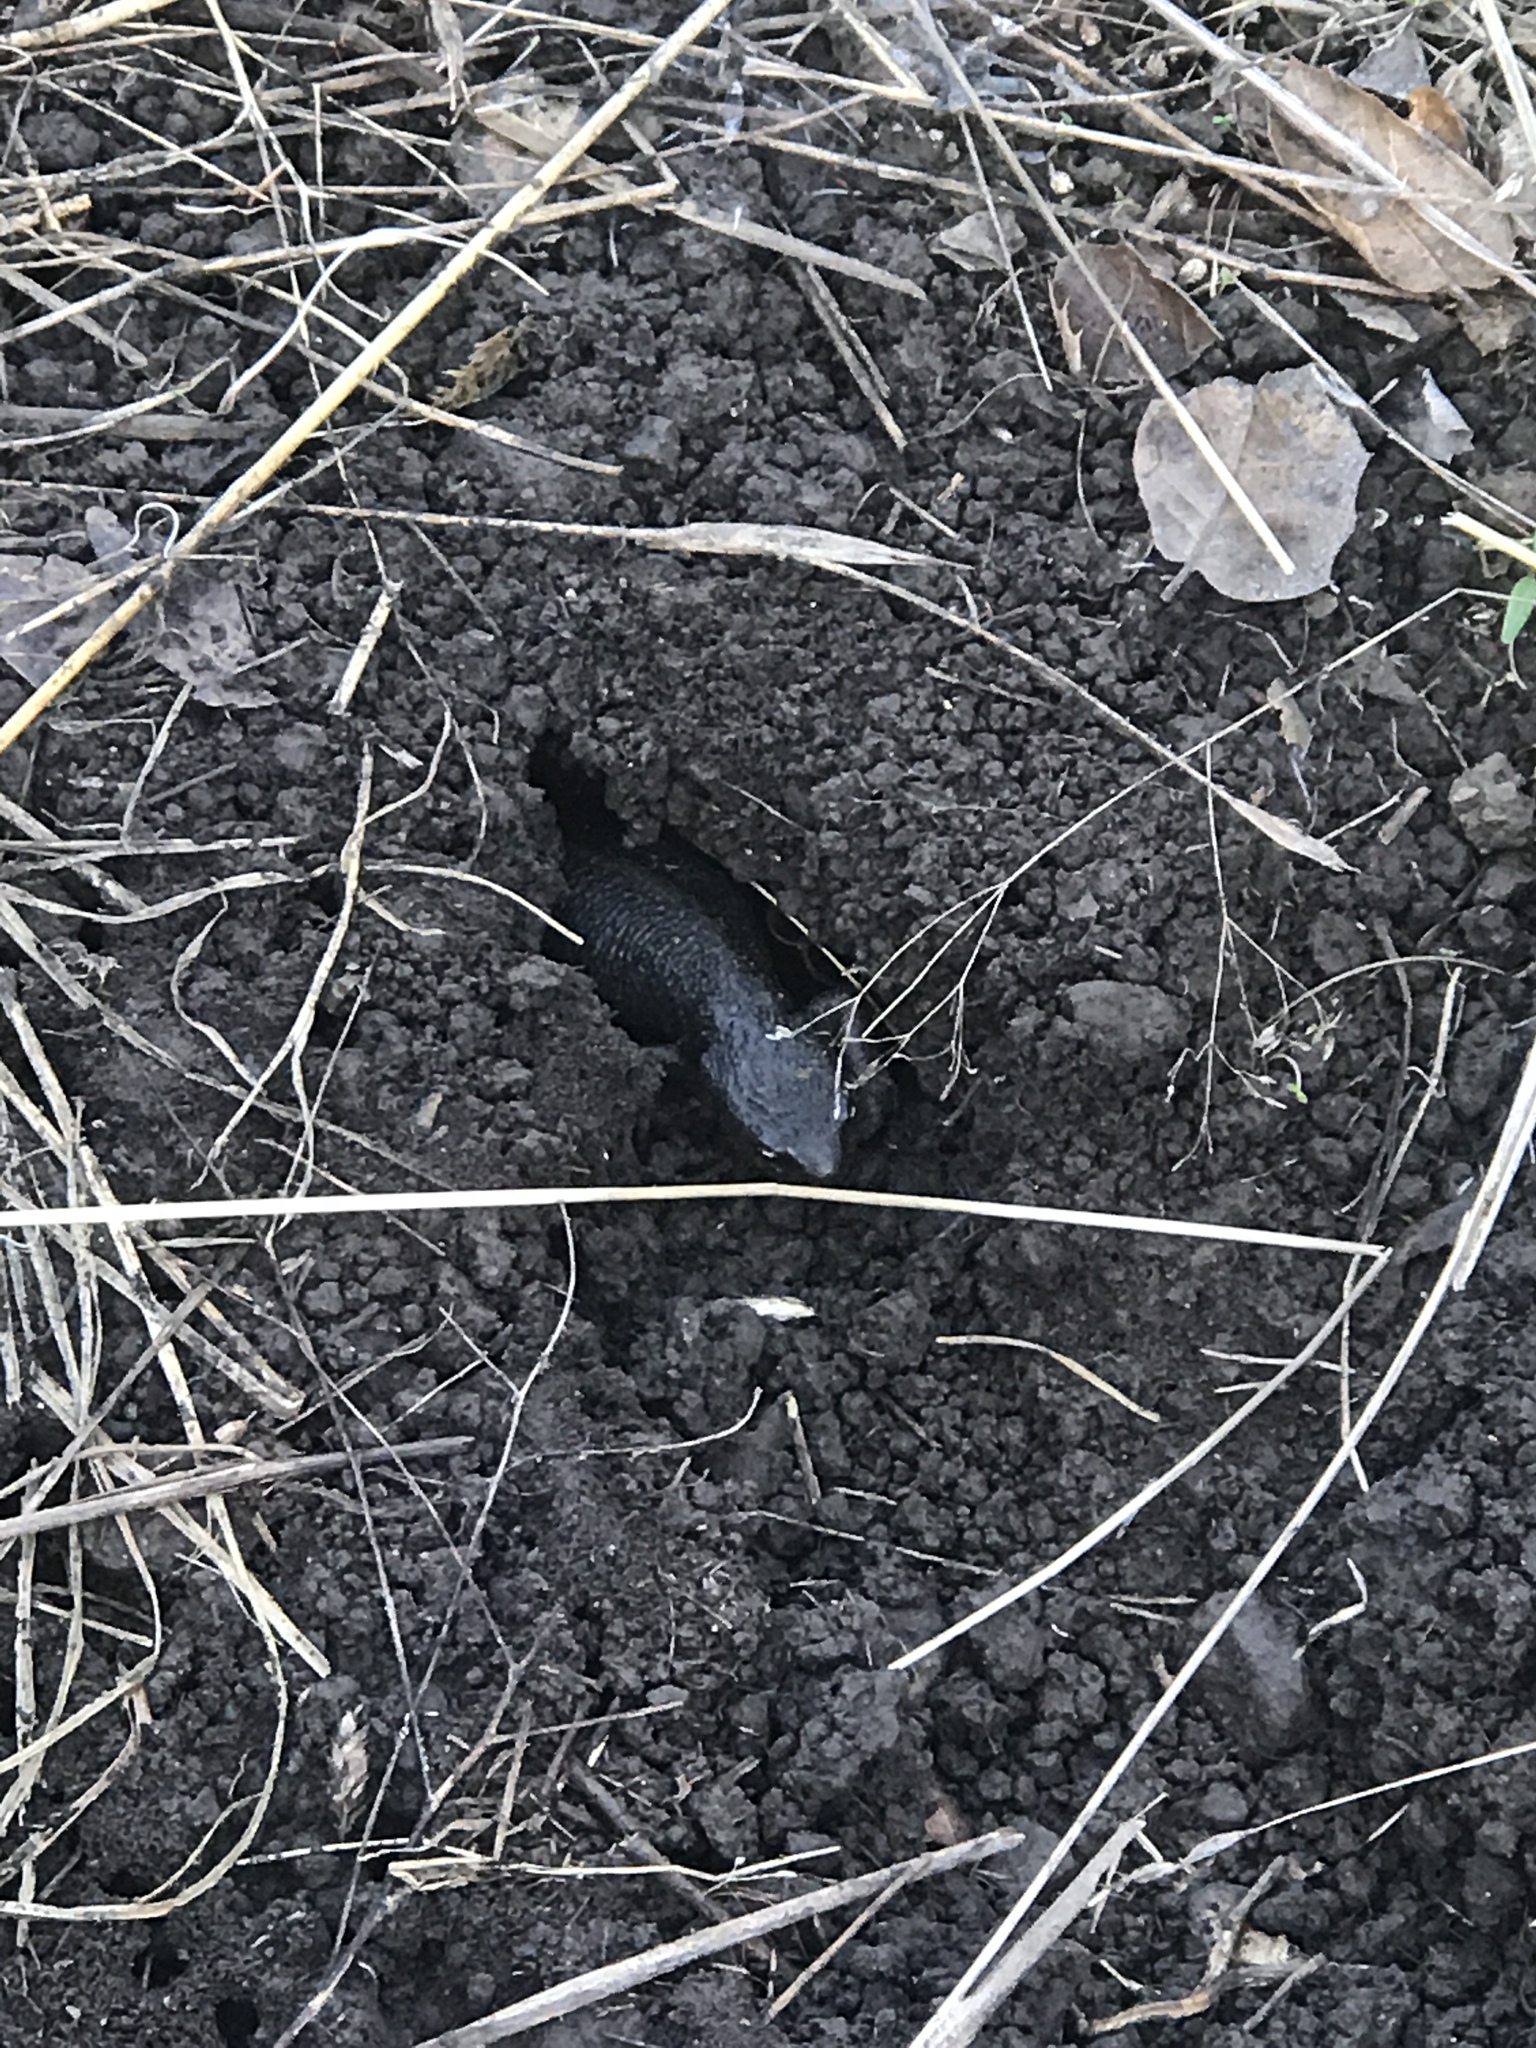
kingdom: Animalia
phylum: Chordata
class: Amphibia
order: Caudata
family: Salamandridae
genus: Taricha
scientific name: Taricha granulosa
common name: Roughskin newt
